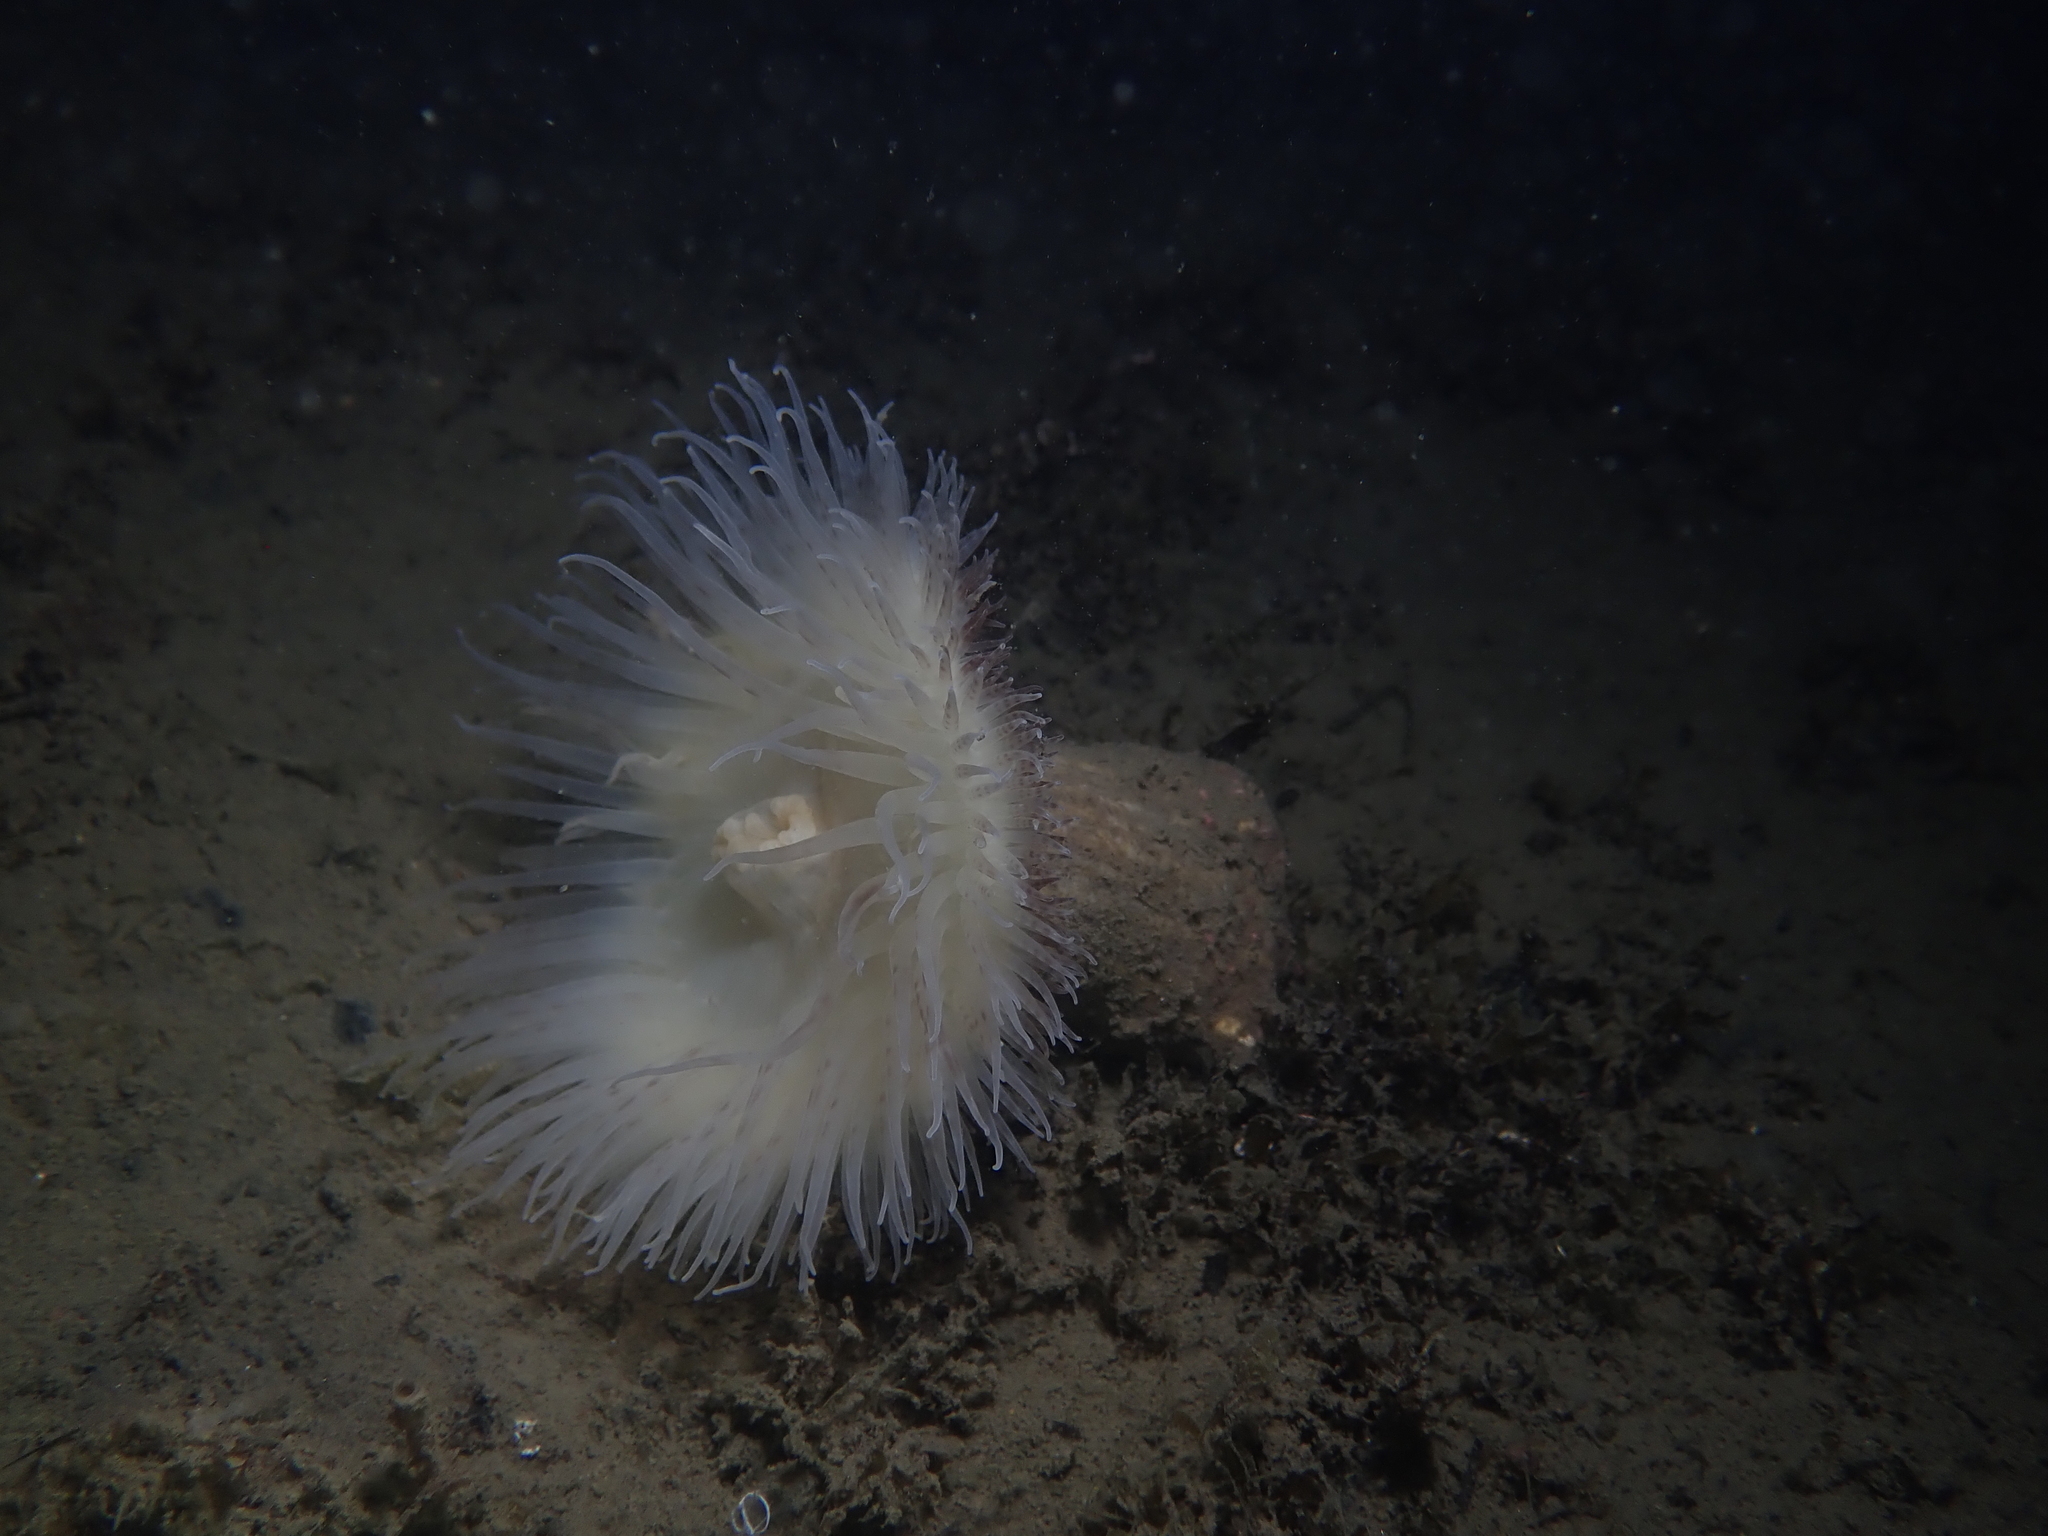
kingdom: Animalia
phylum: Cnidaria
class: Anthozoa
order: Actiniaria
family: Hormathiidae
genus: Calliactis
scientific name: Calliactis parasitica
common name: Parasitic anemone
